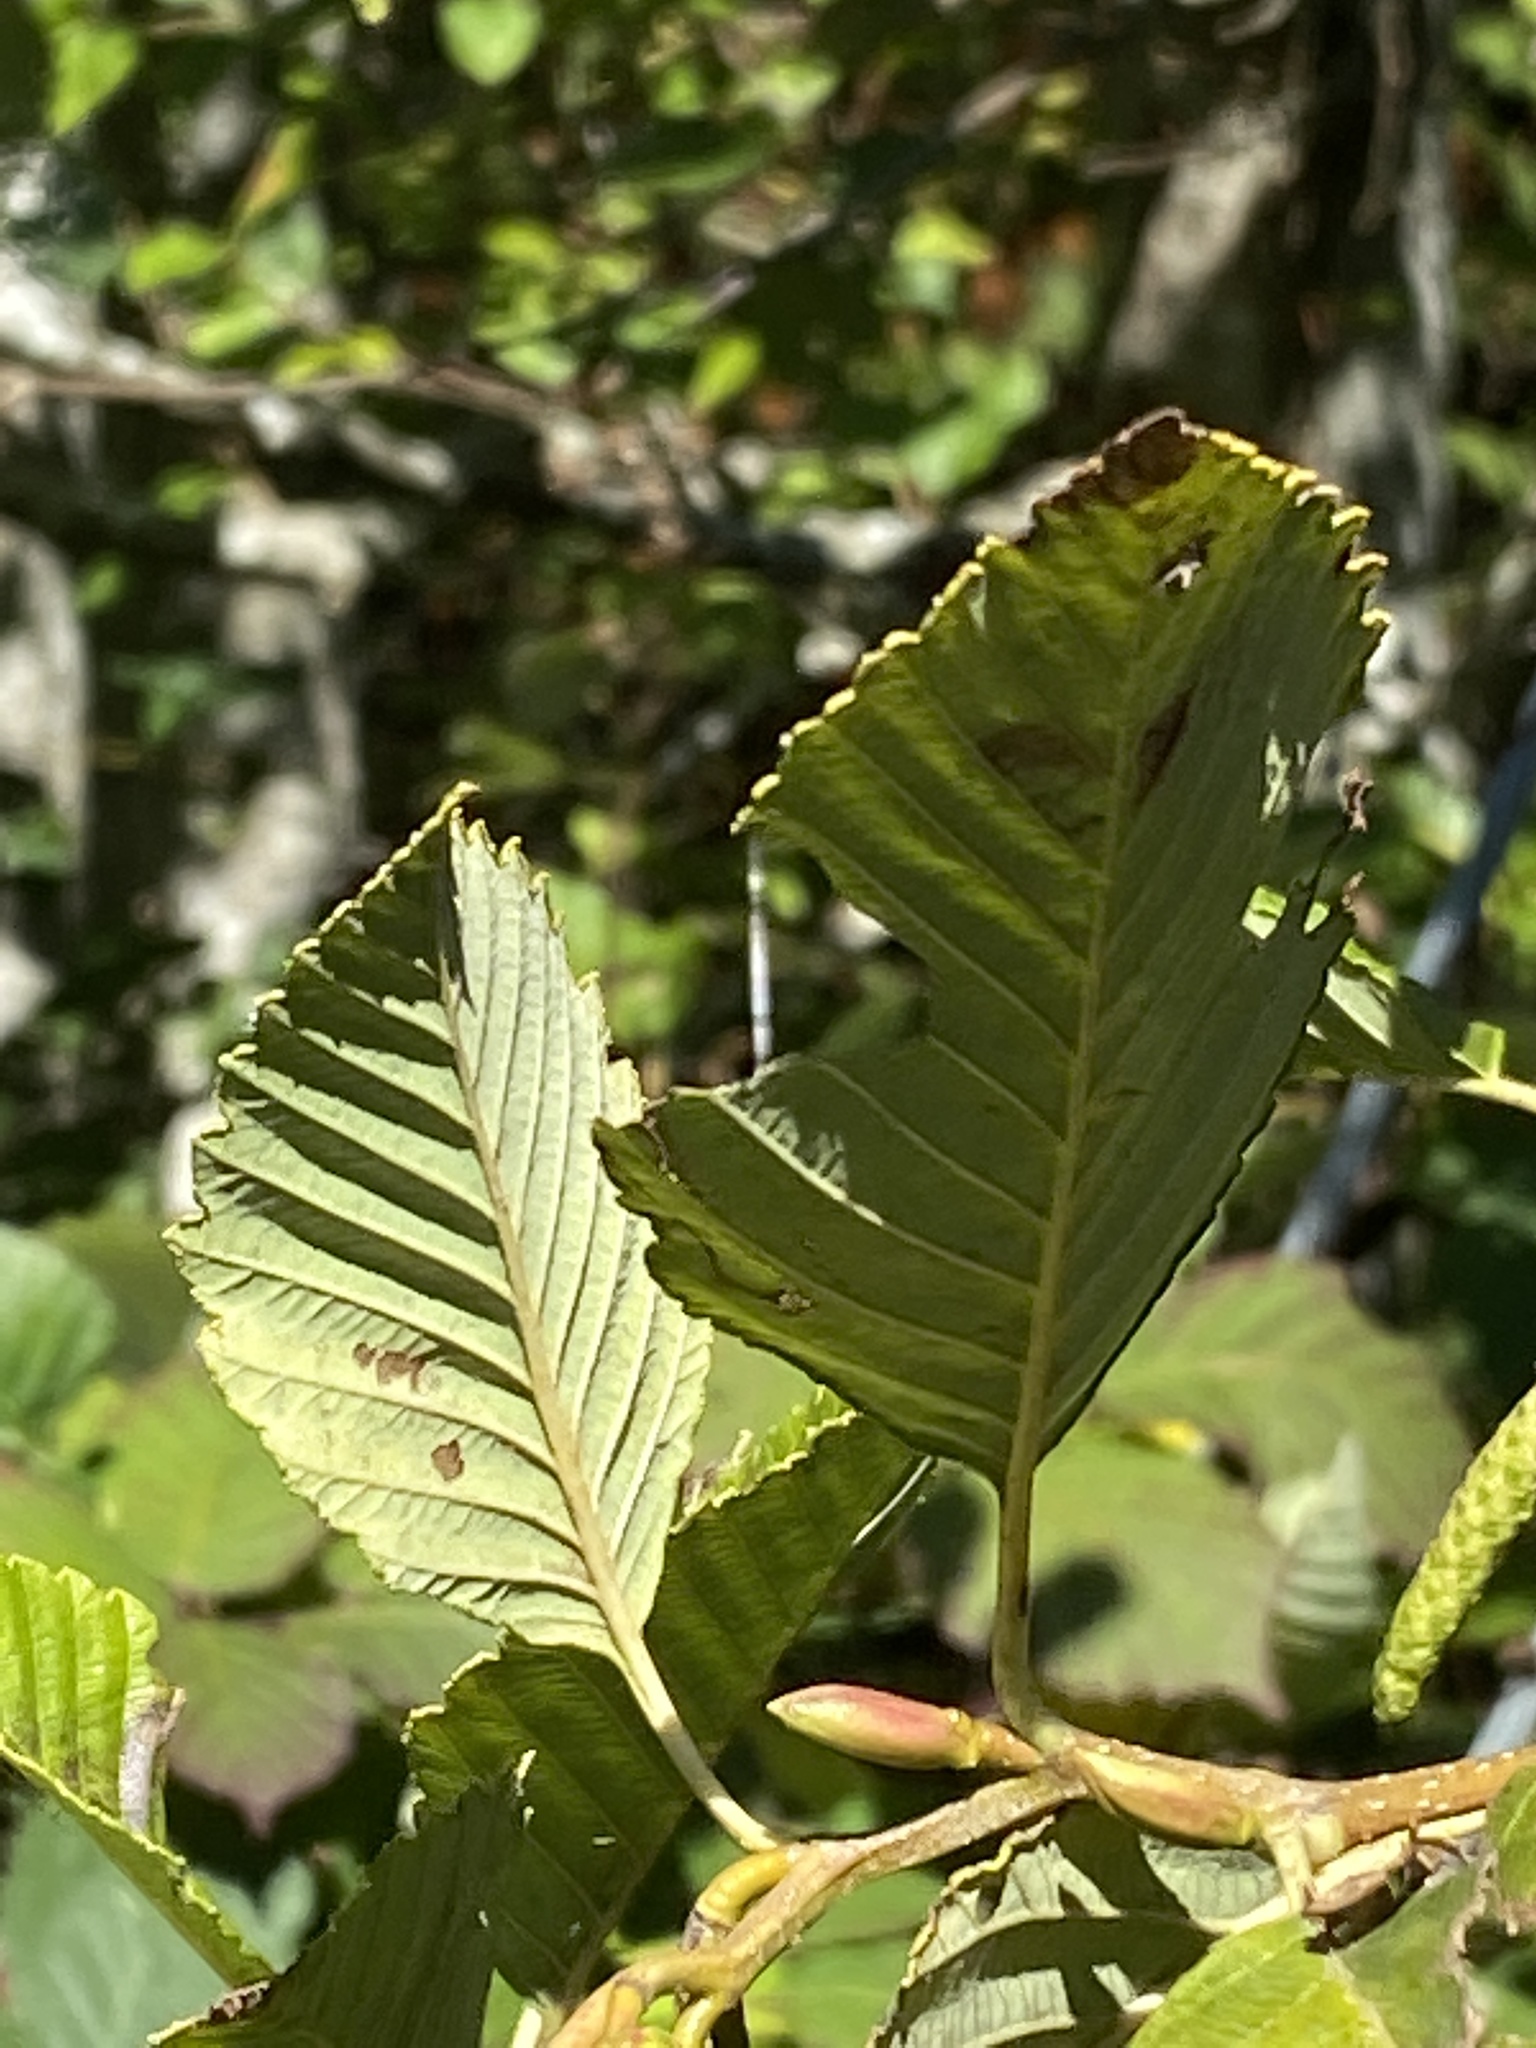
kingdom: Plantae
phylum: Tracheophyta
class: Magnoliopsida
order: Fagales
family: Betulaceae
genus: Alnus
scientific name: Alnus rubra
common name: Red alder
